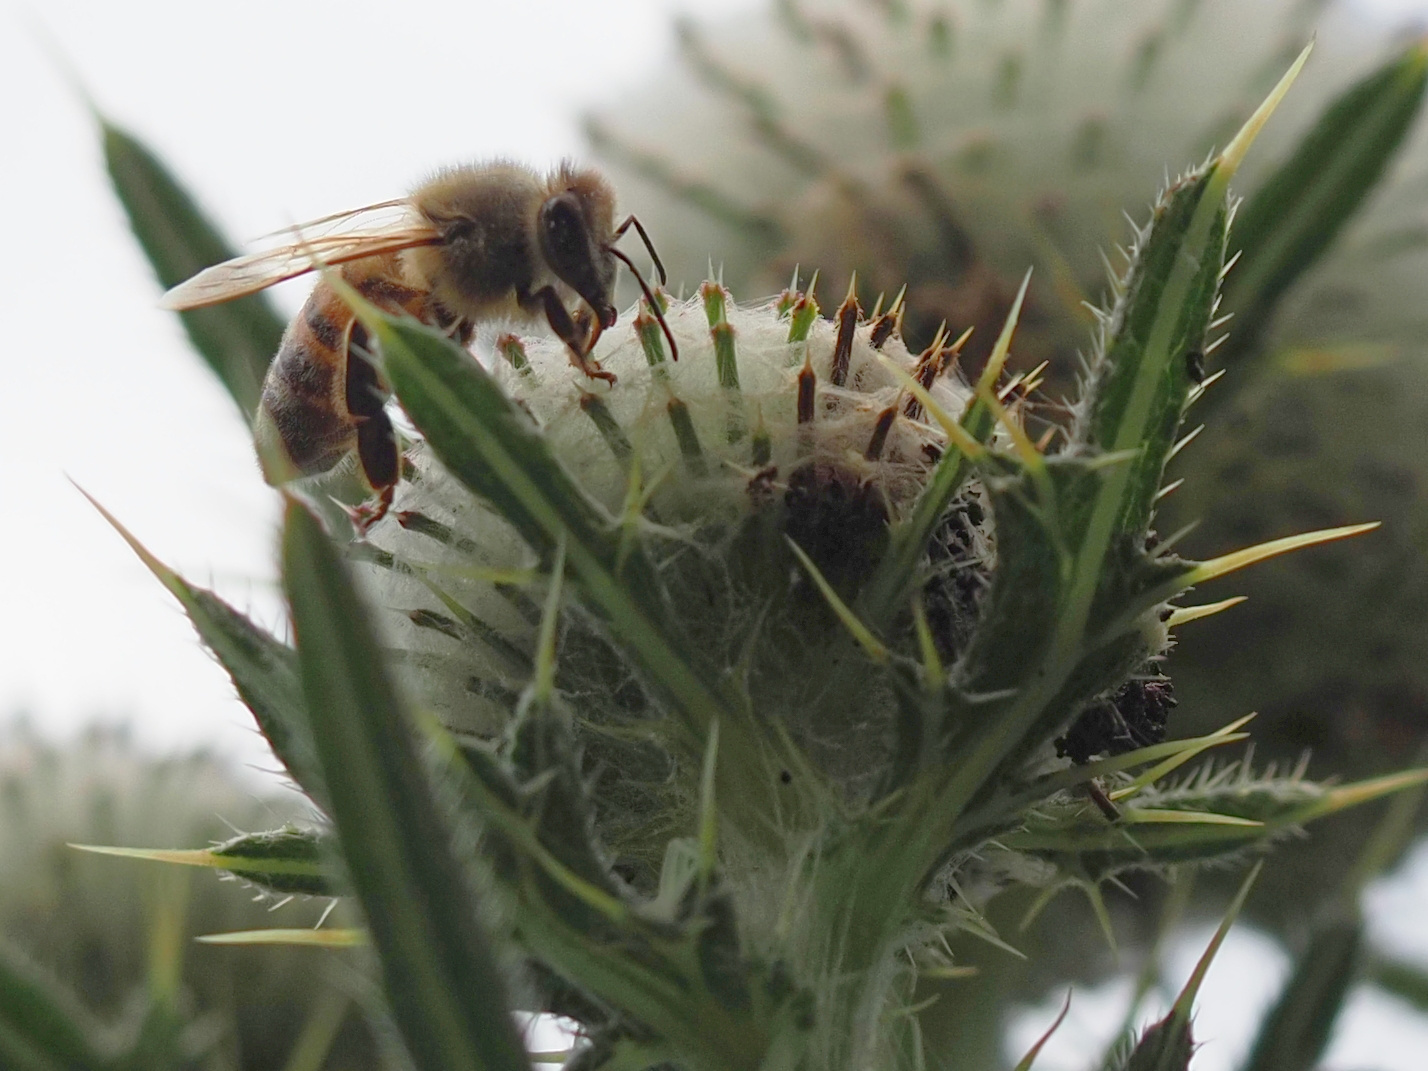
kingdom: Animalia
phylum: Arthropoda
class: Insecta
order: Hymenoptera
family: Apidae
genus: Apis
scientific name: Apis mellifera
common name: Honey bee
